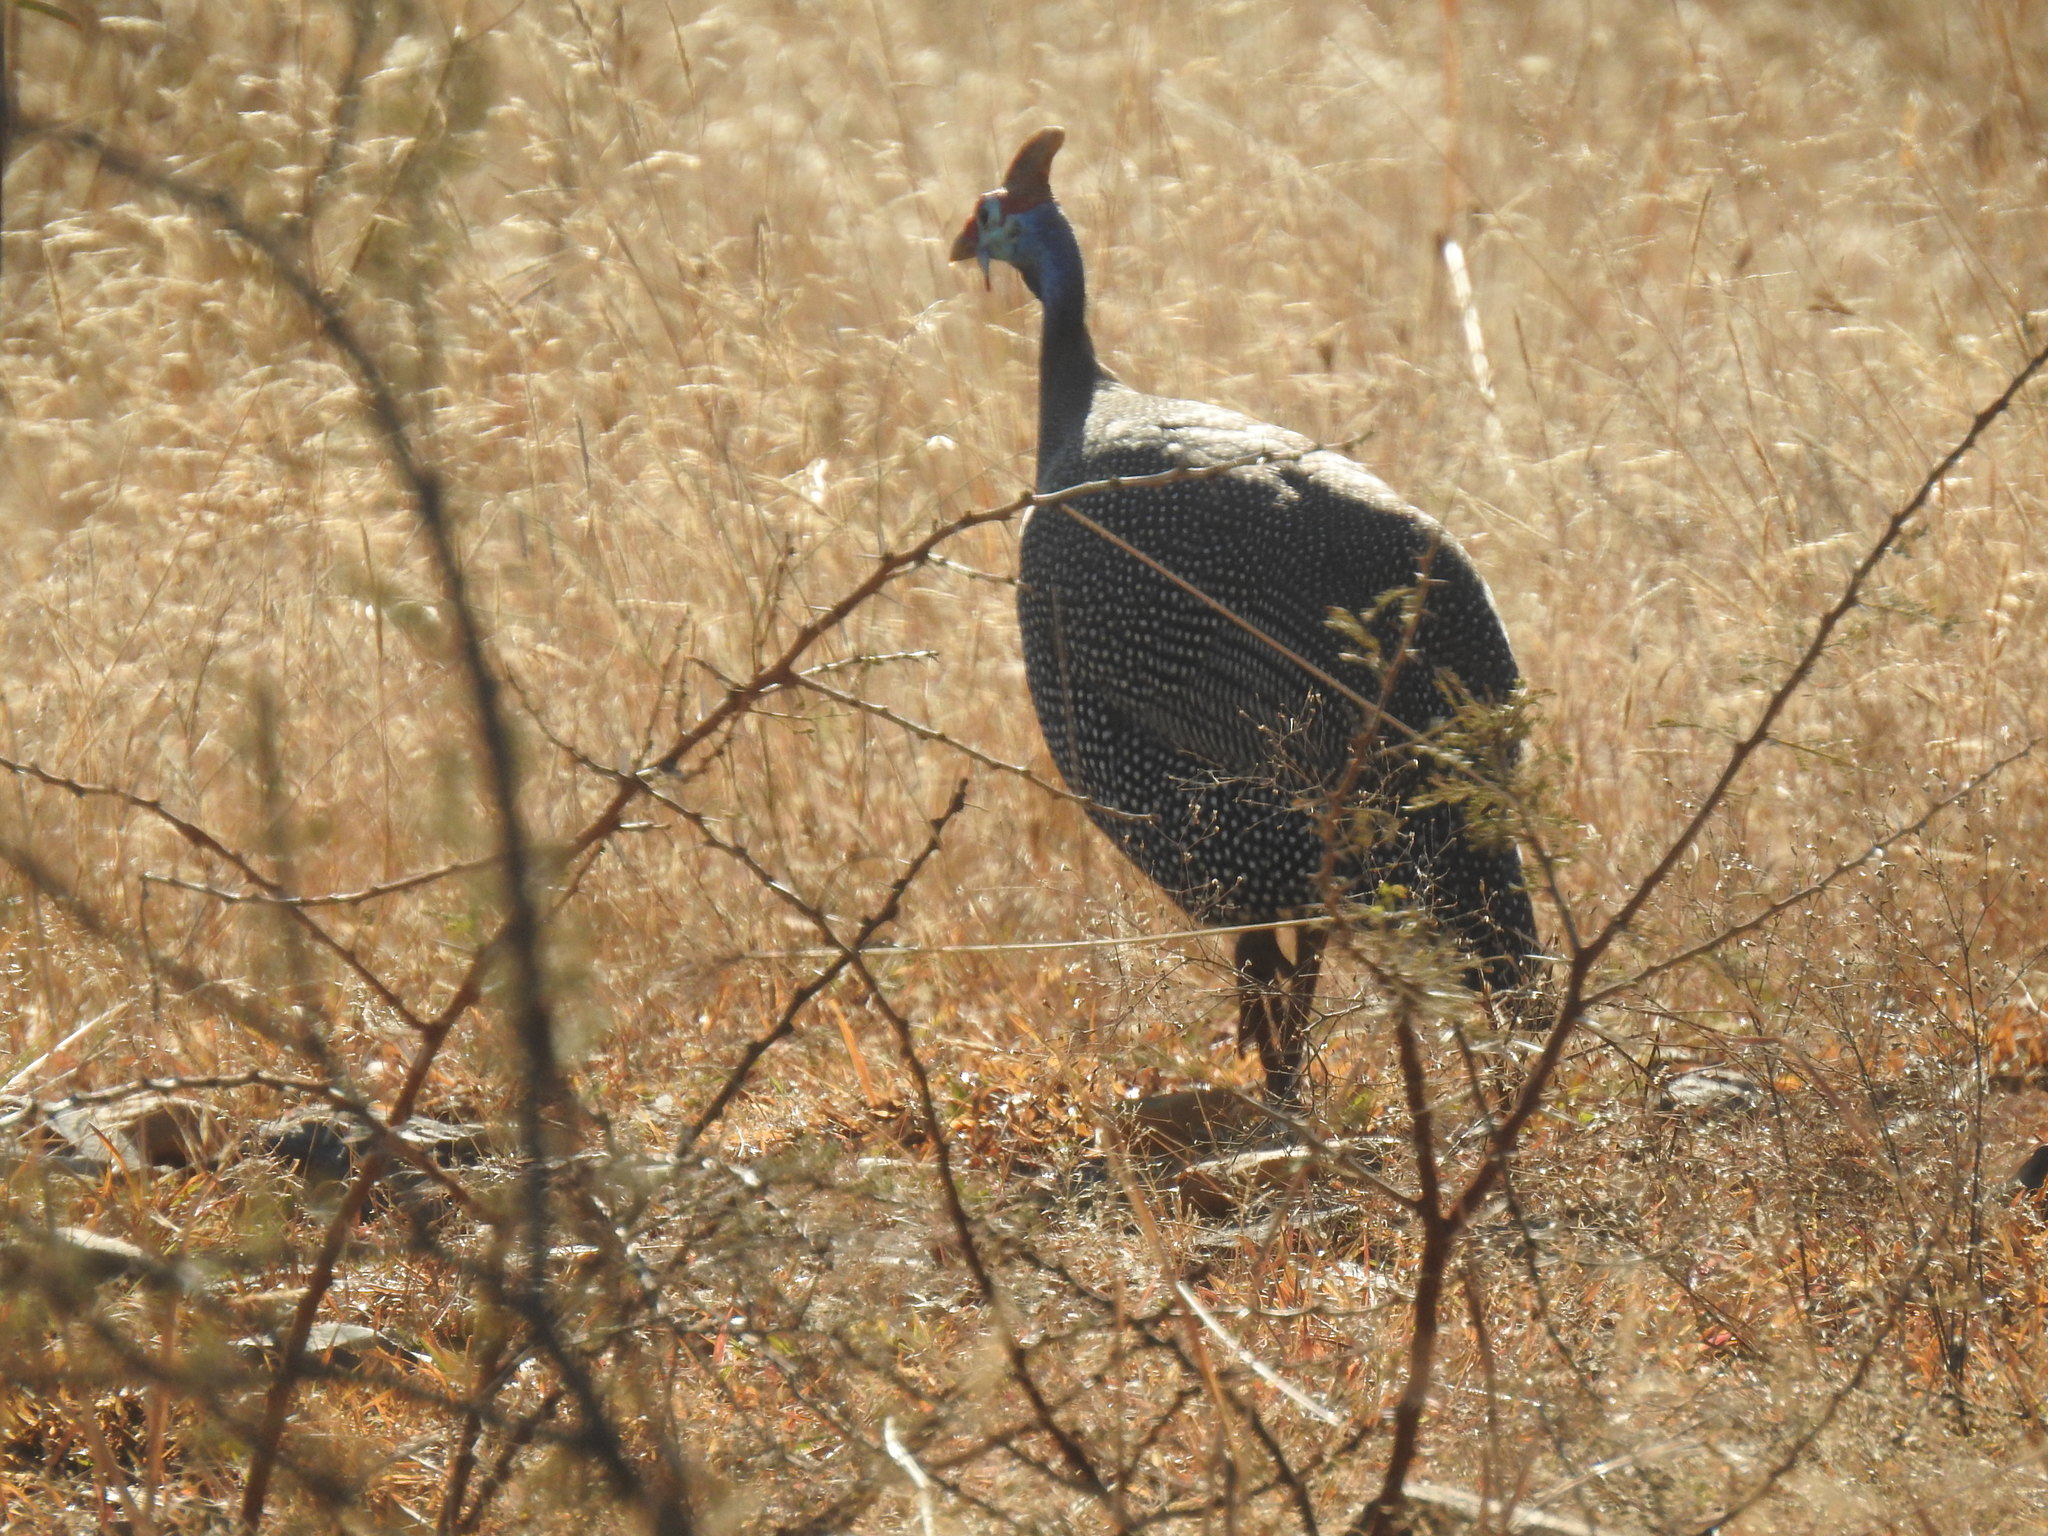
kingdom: Animalia
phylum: Chordata
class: Aves
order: Galliformes
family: Numididae
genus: Numida
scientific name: Numida meleagris
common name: Helmeted guineafowl
